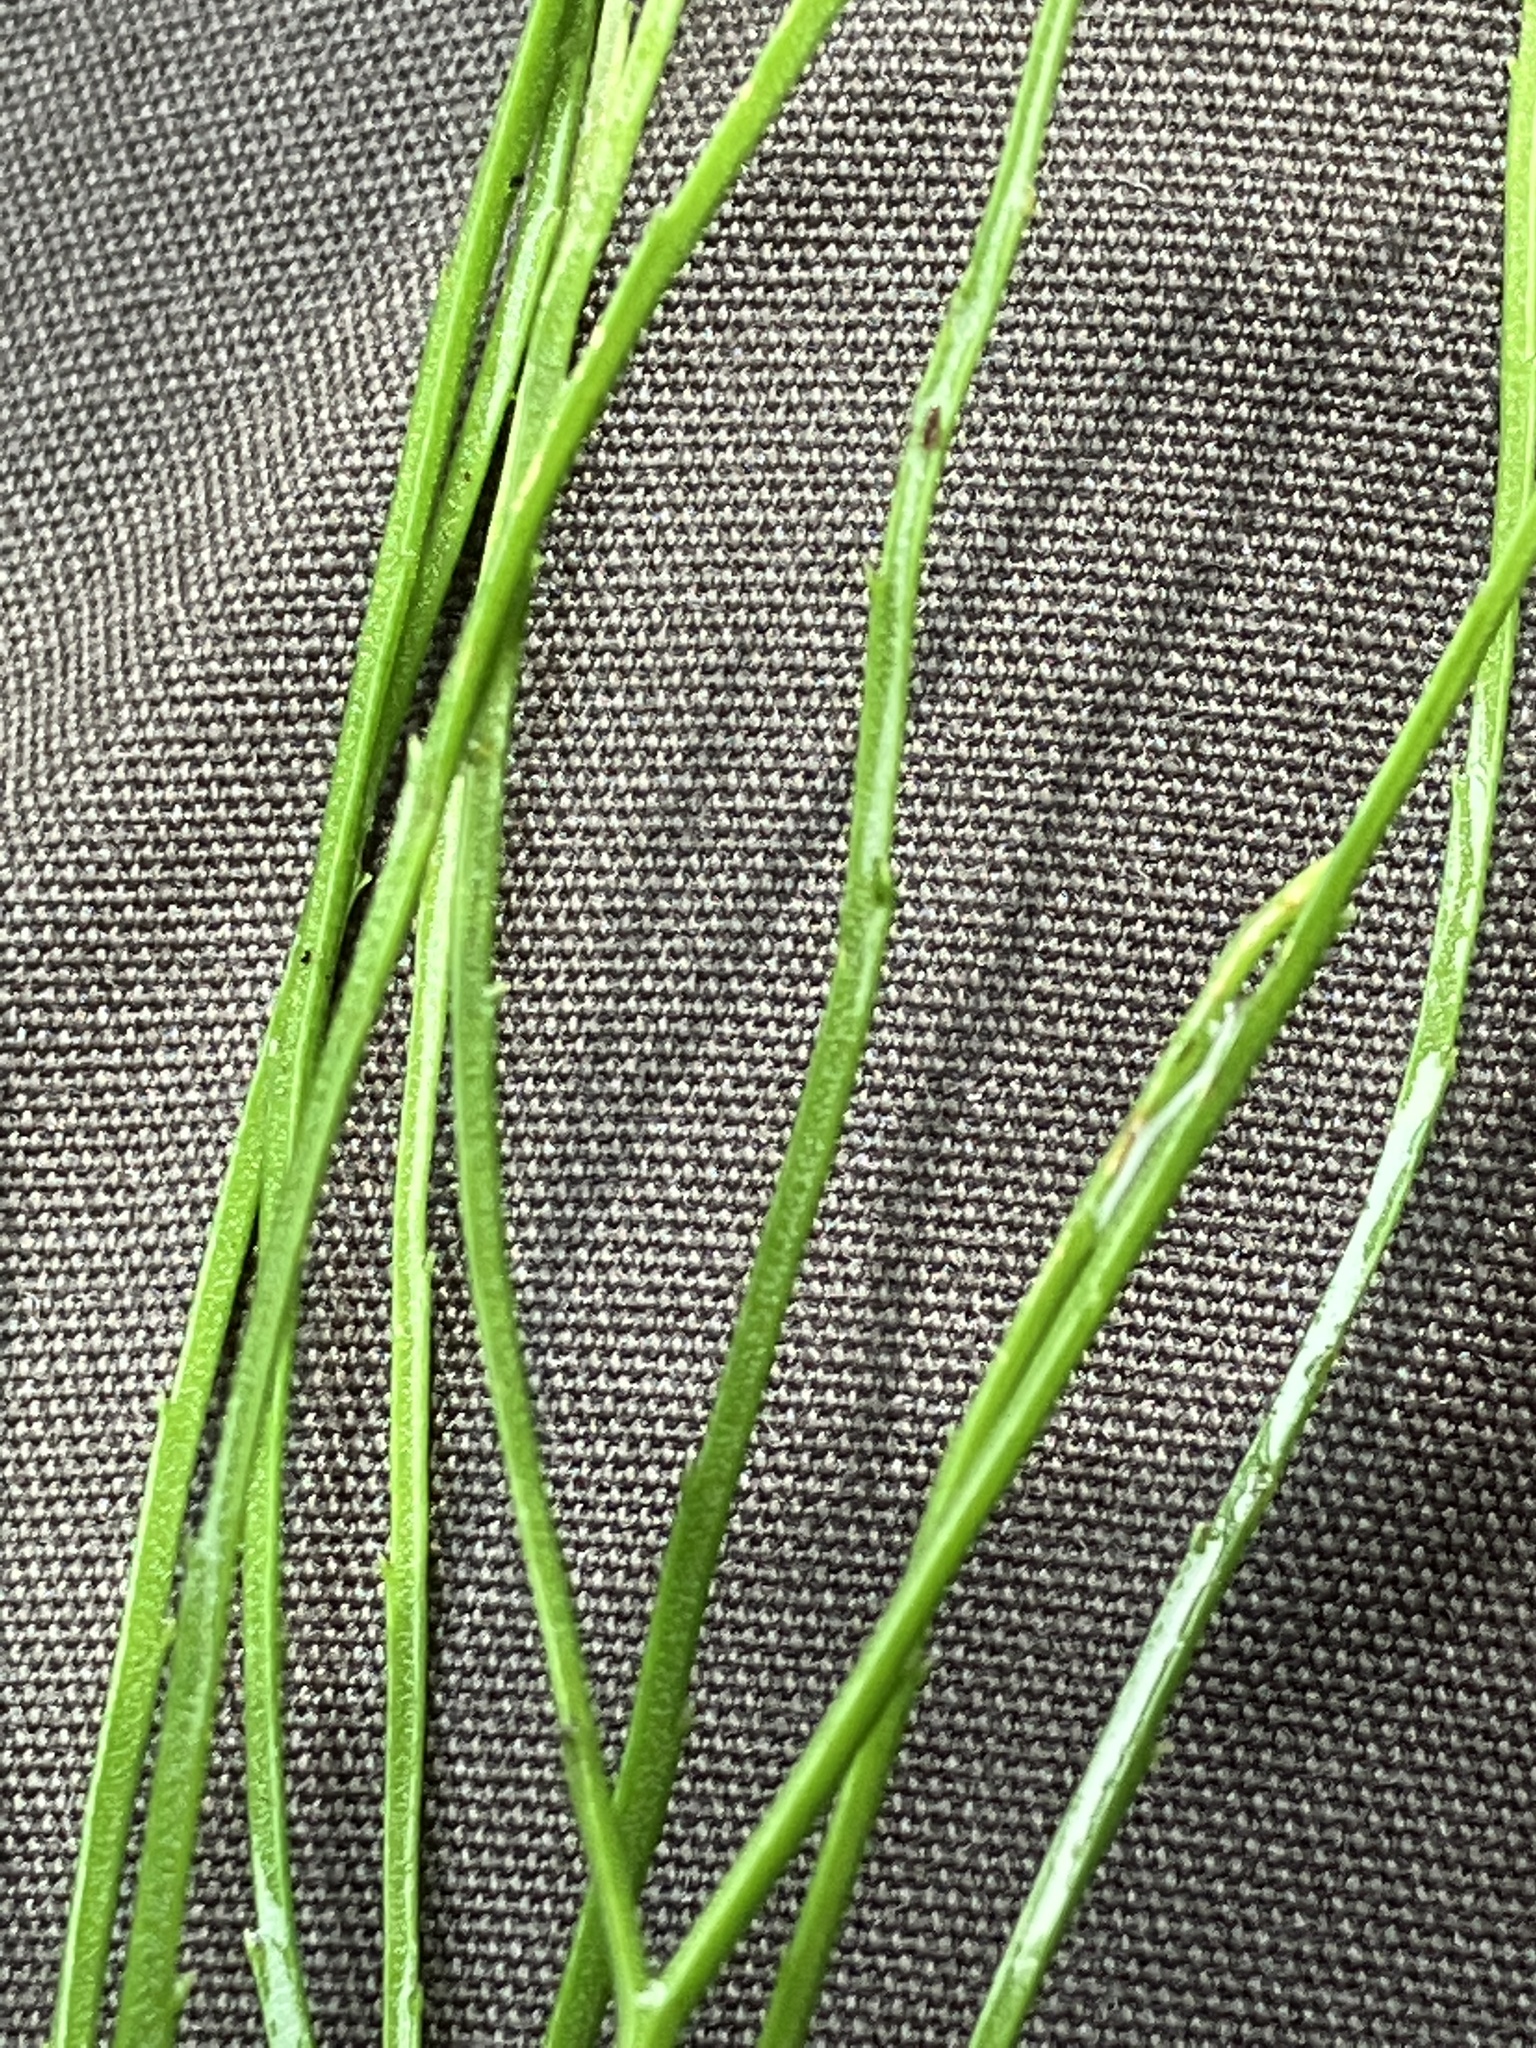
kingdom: Plantae
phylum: Tracheophyta
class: Polypodiopsida
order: Psilotales
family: Psilotaceae
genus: Psilotum
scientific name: Psilotum nudum
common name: Skeleton fork fern
